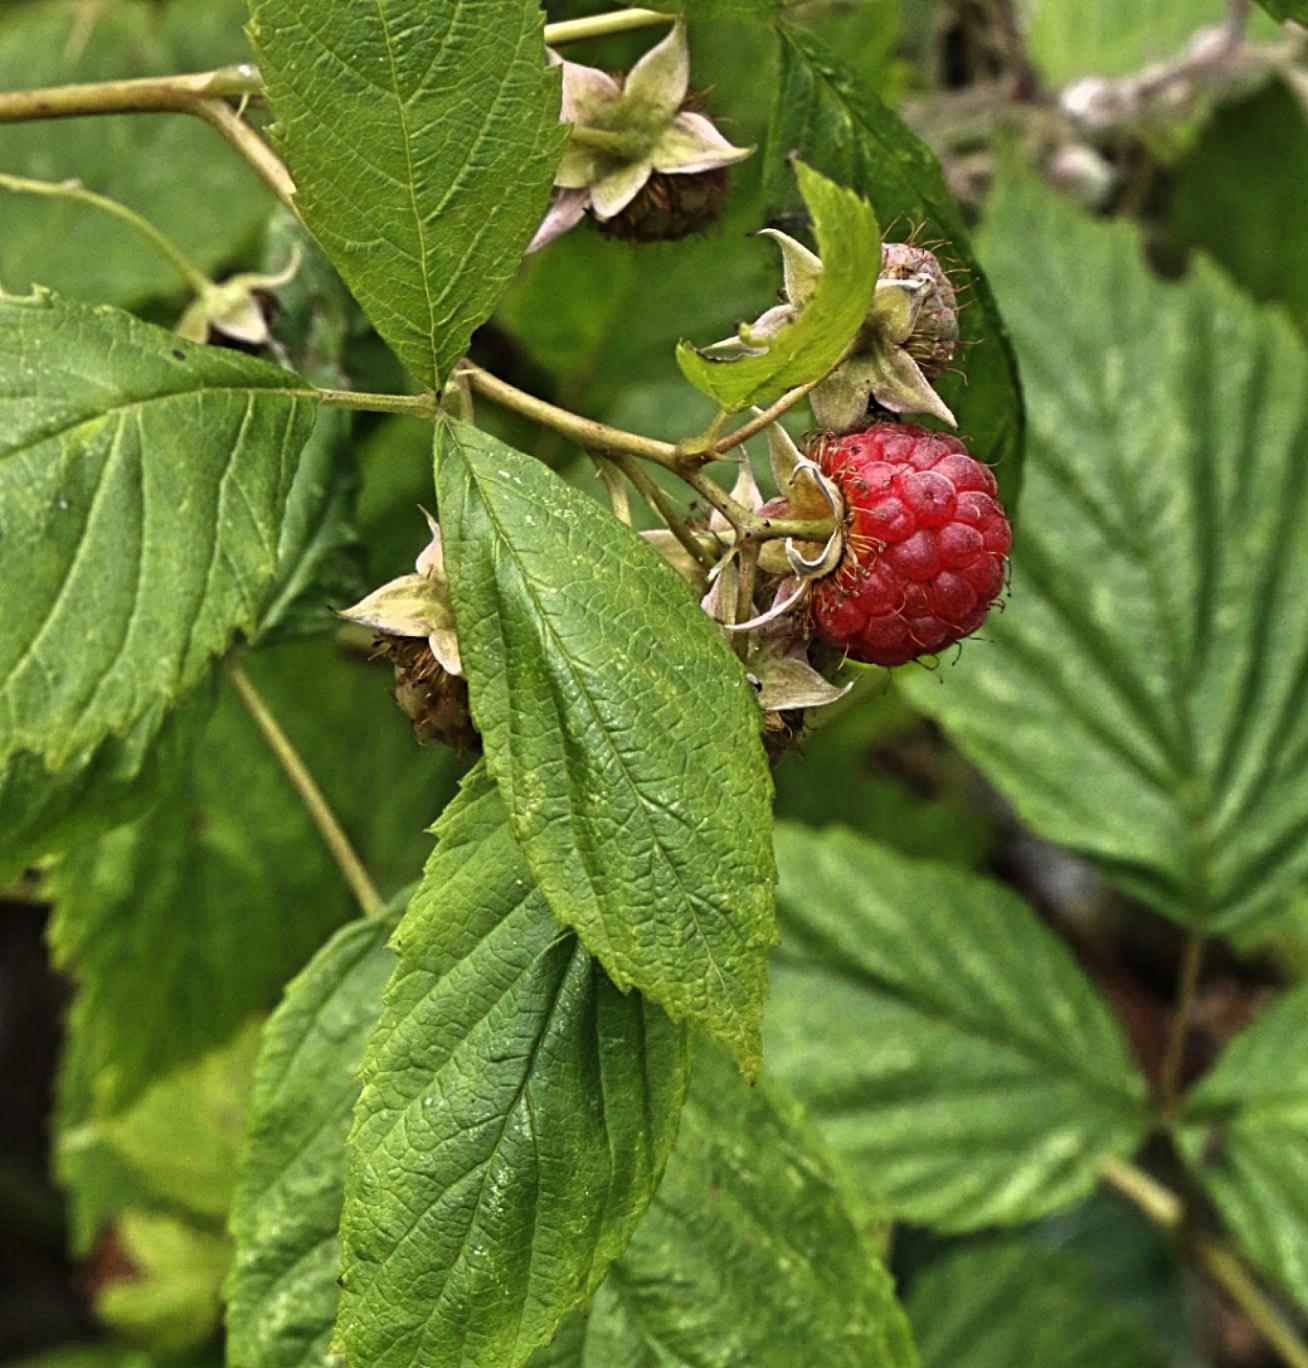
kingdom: Plantae
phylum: Tracheophyta
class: Magnoliopsida
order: Rosales
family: Rosaceae
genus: Rubus
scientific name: Rubus idaeus
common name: Raspberry
